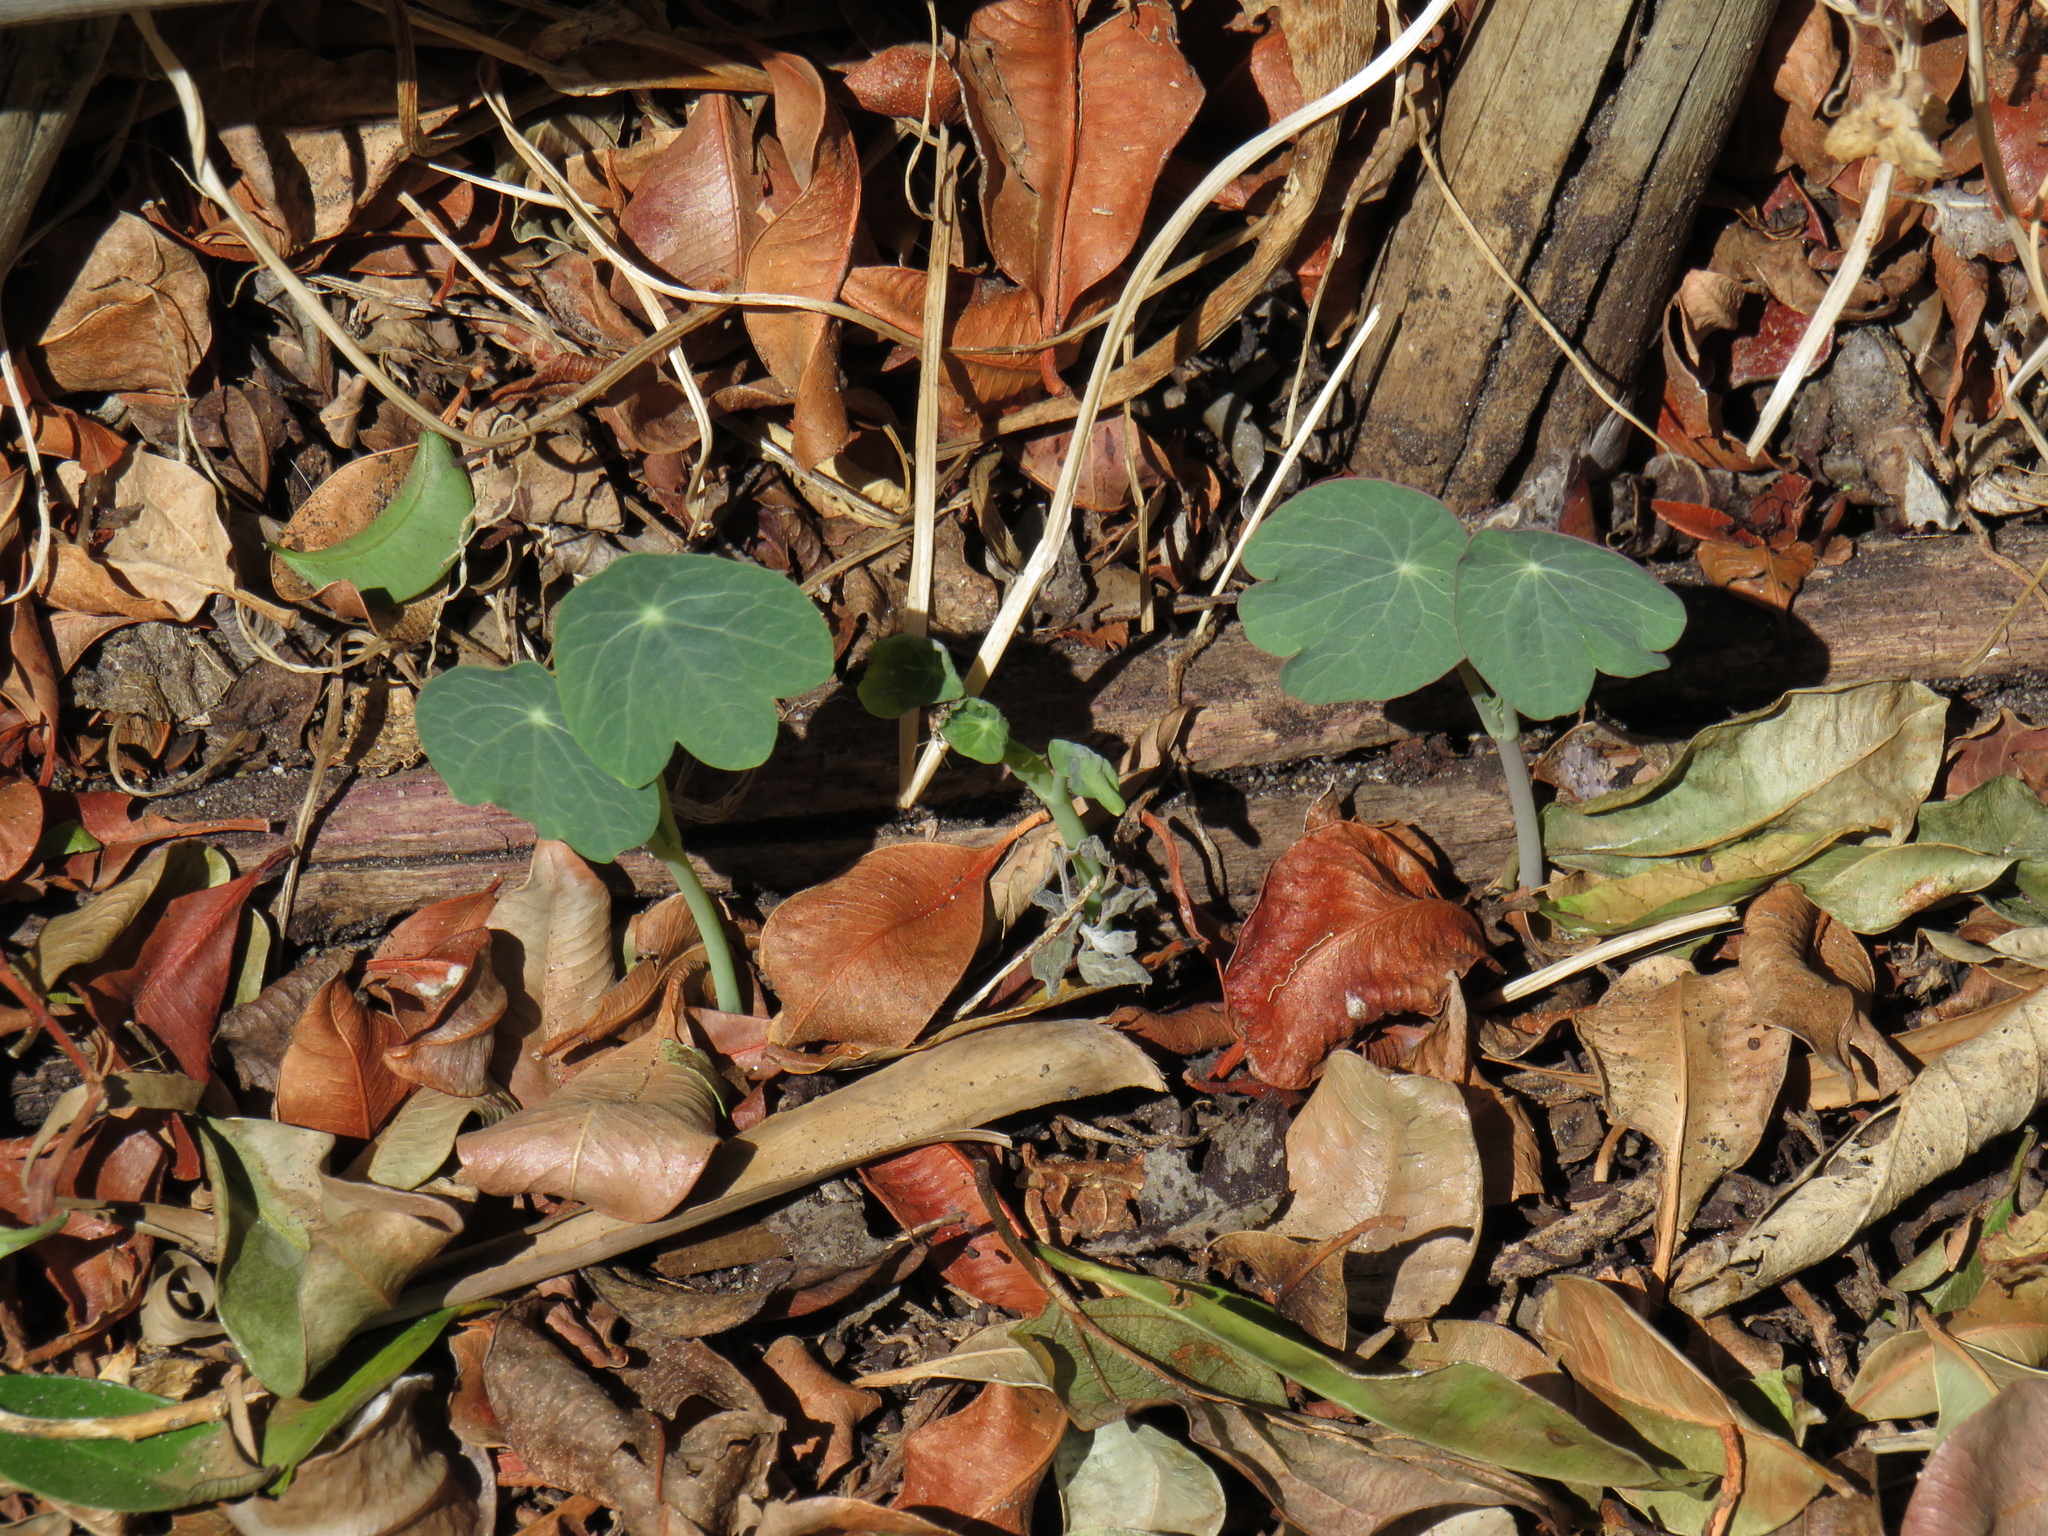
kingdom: Plantae
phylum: Tracheophyta
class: Magnoliopsida
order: Brassicales
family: Tropaeolaceae
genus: Tropaeolum
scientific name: Tropaeolum majus
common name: Nasturtium
